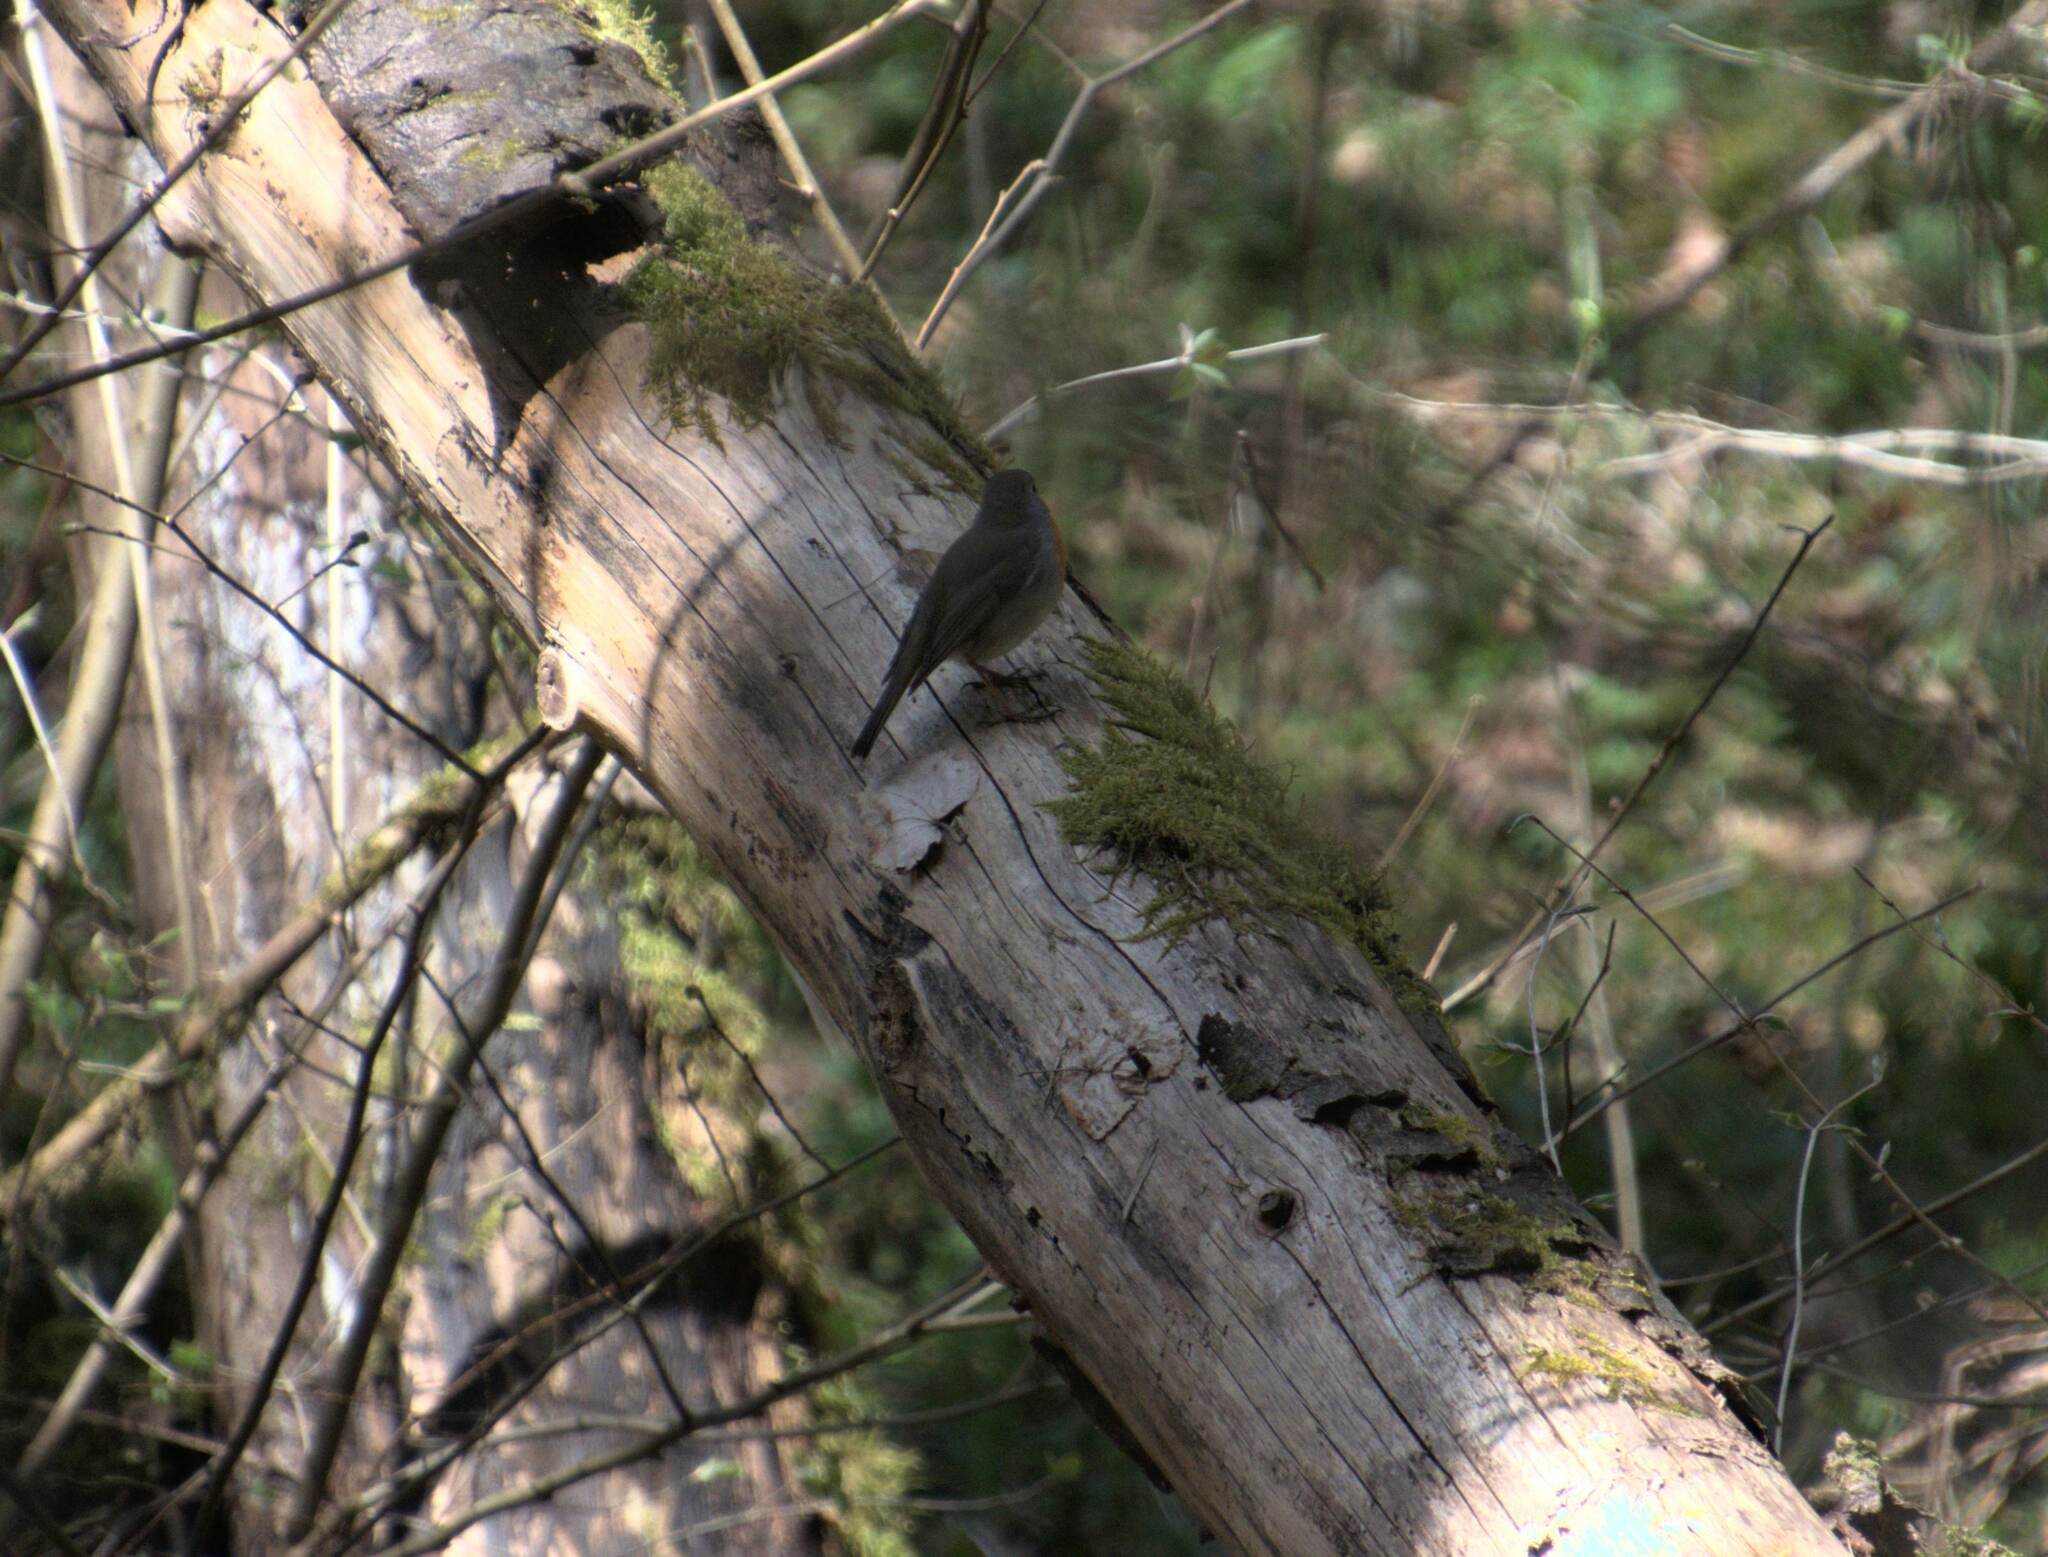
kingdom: Animalia
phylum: Chordata
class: Aves
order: Passeriformes
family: Muscicapidae
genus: Erithacus
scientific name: Erithacus rubecula
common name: European robin
